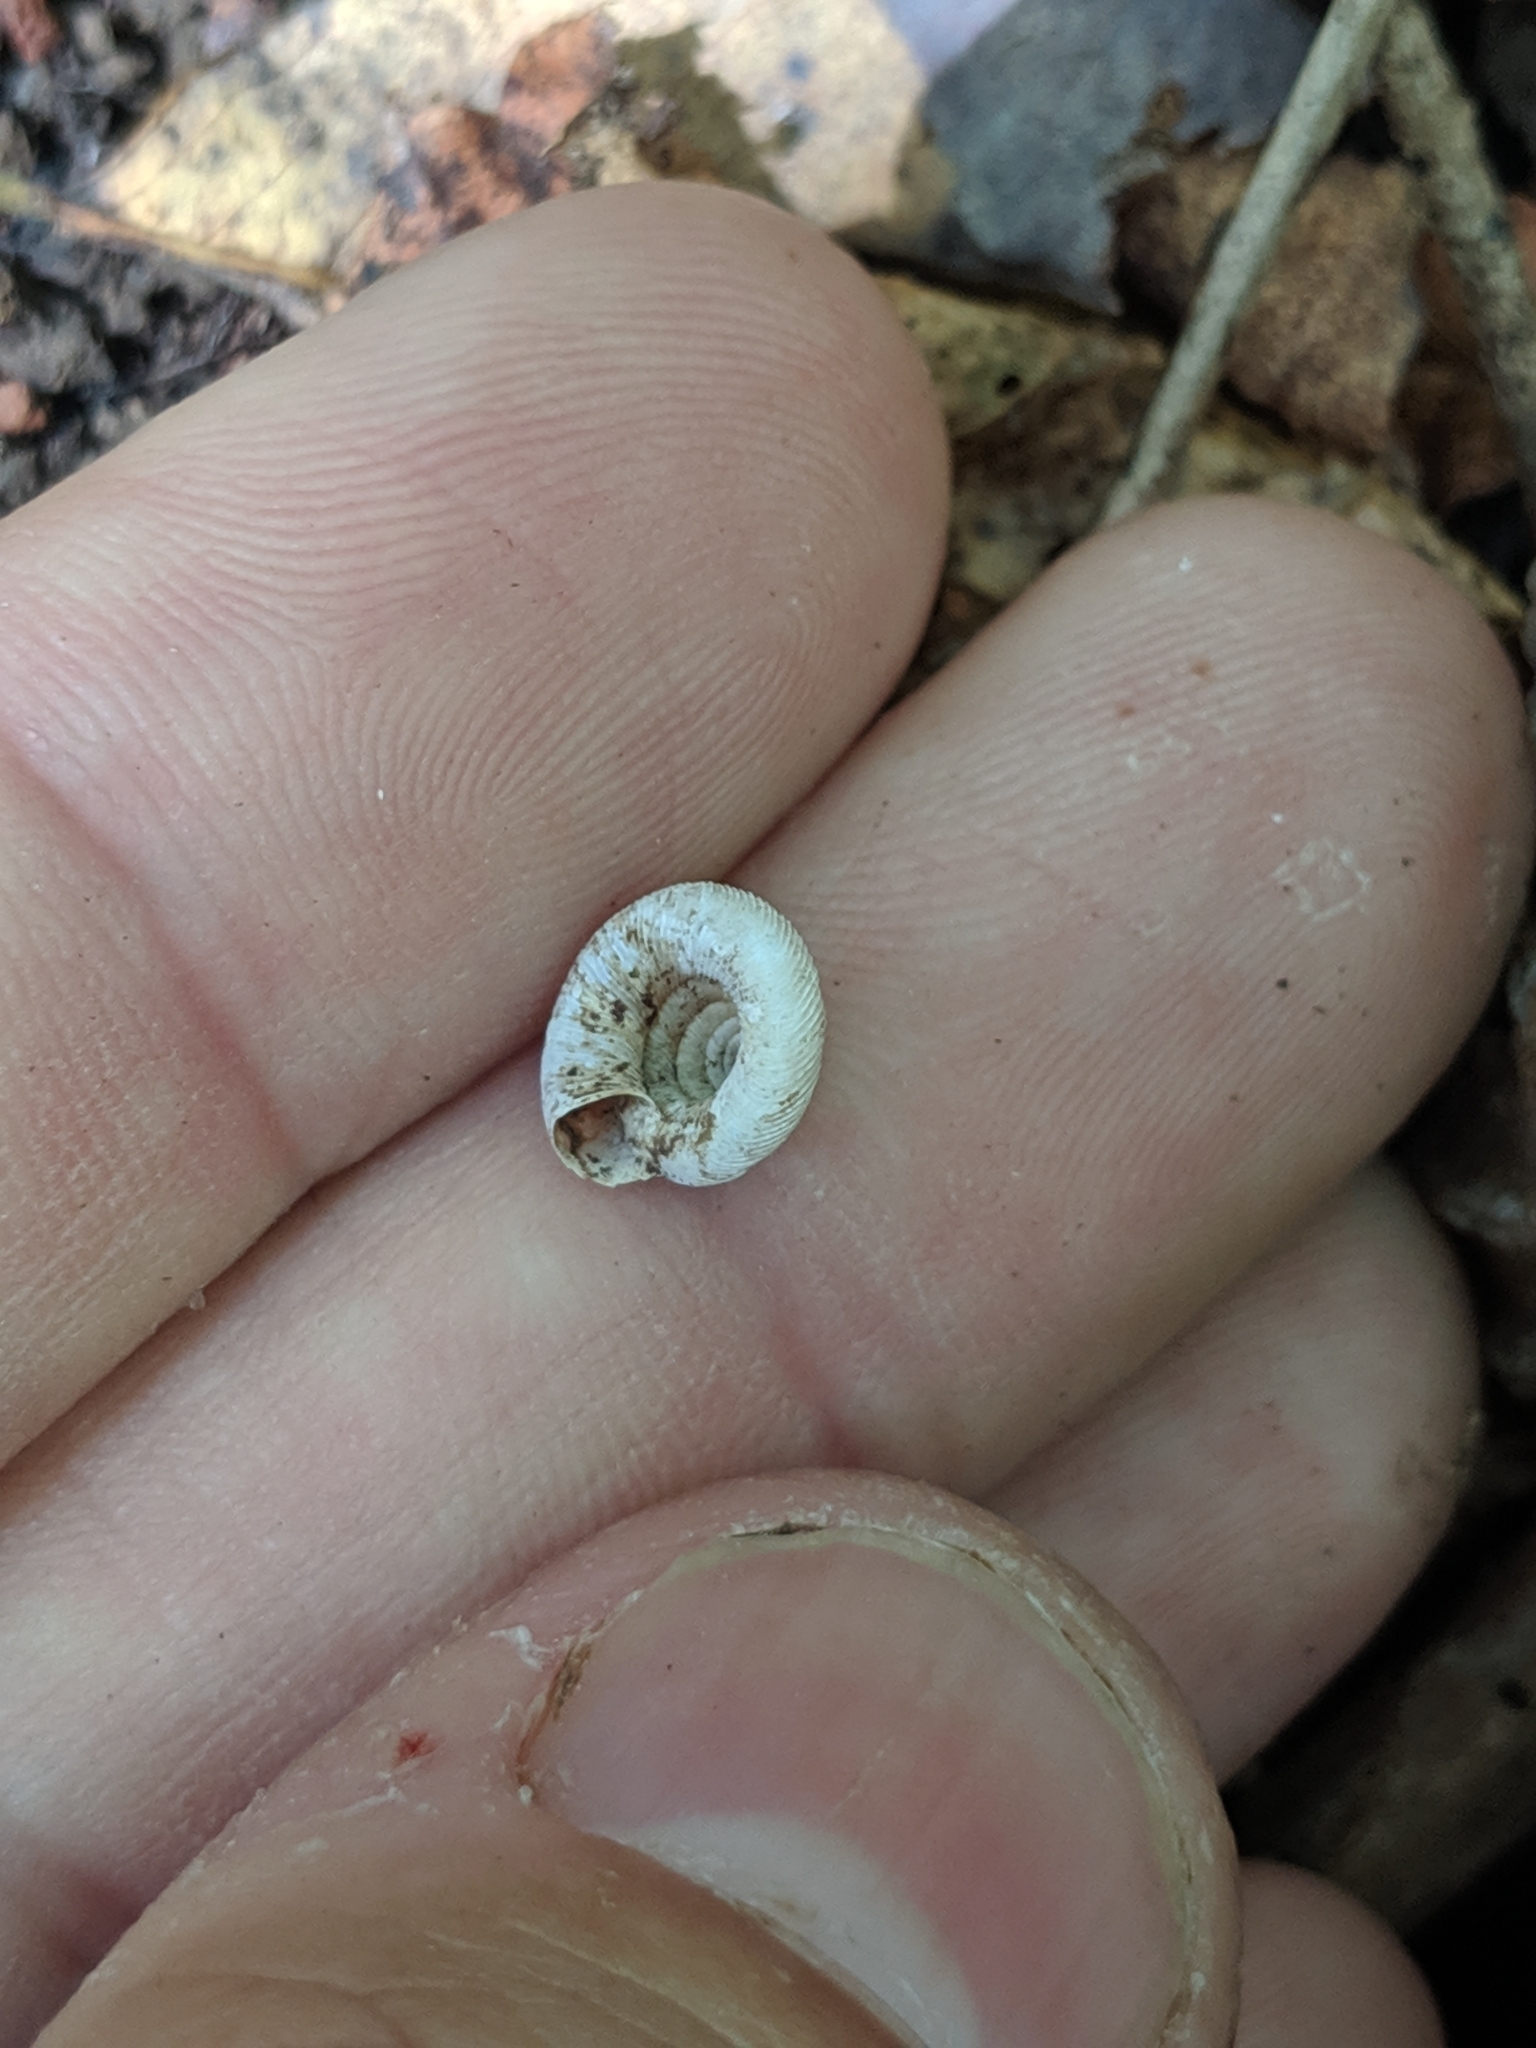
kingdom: Animalia
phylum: Mollusca
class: Gastropoda
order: Stylommatophora
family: Discidae
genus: Discus
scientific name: Discus patulus
